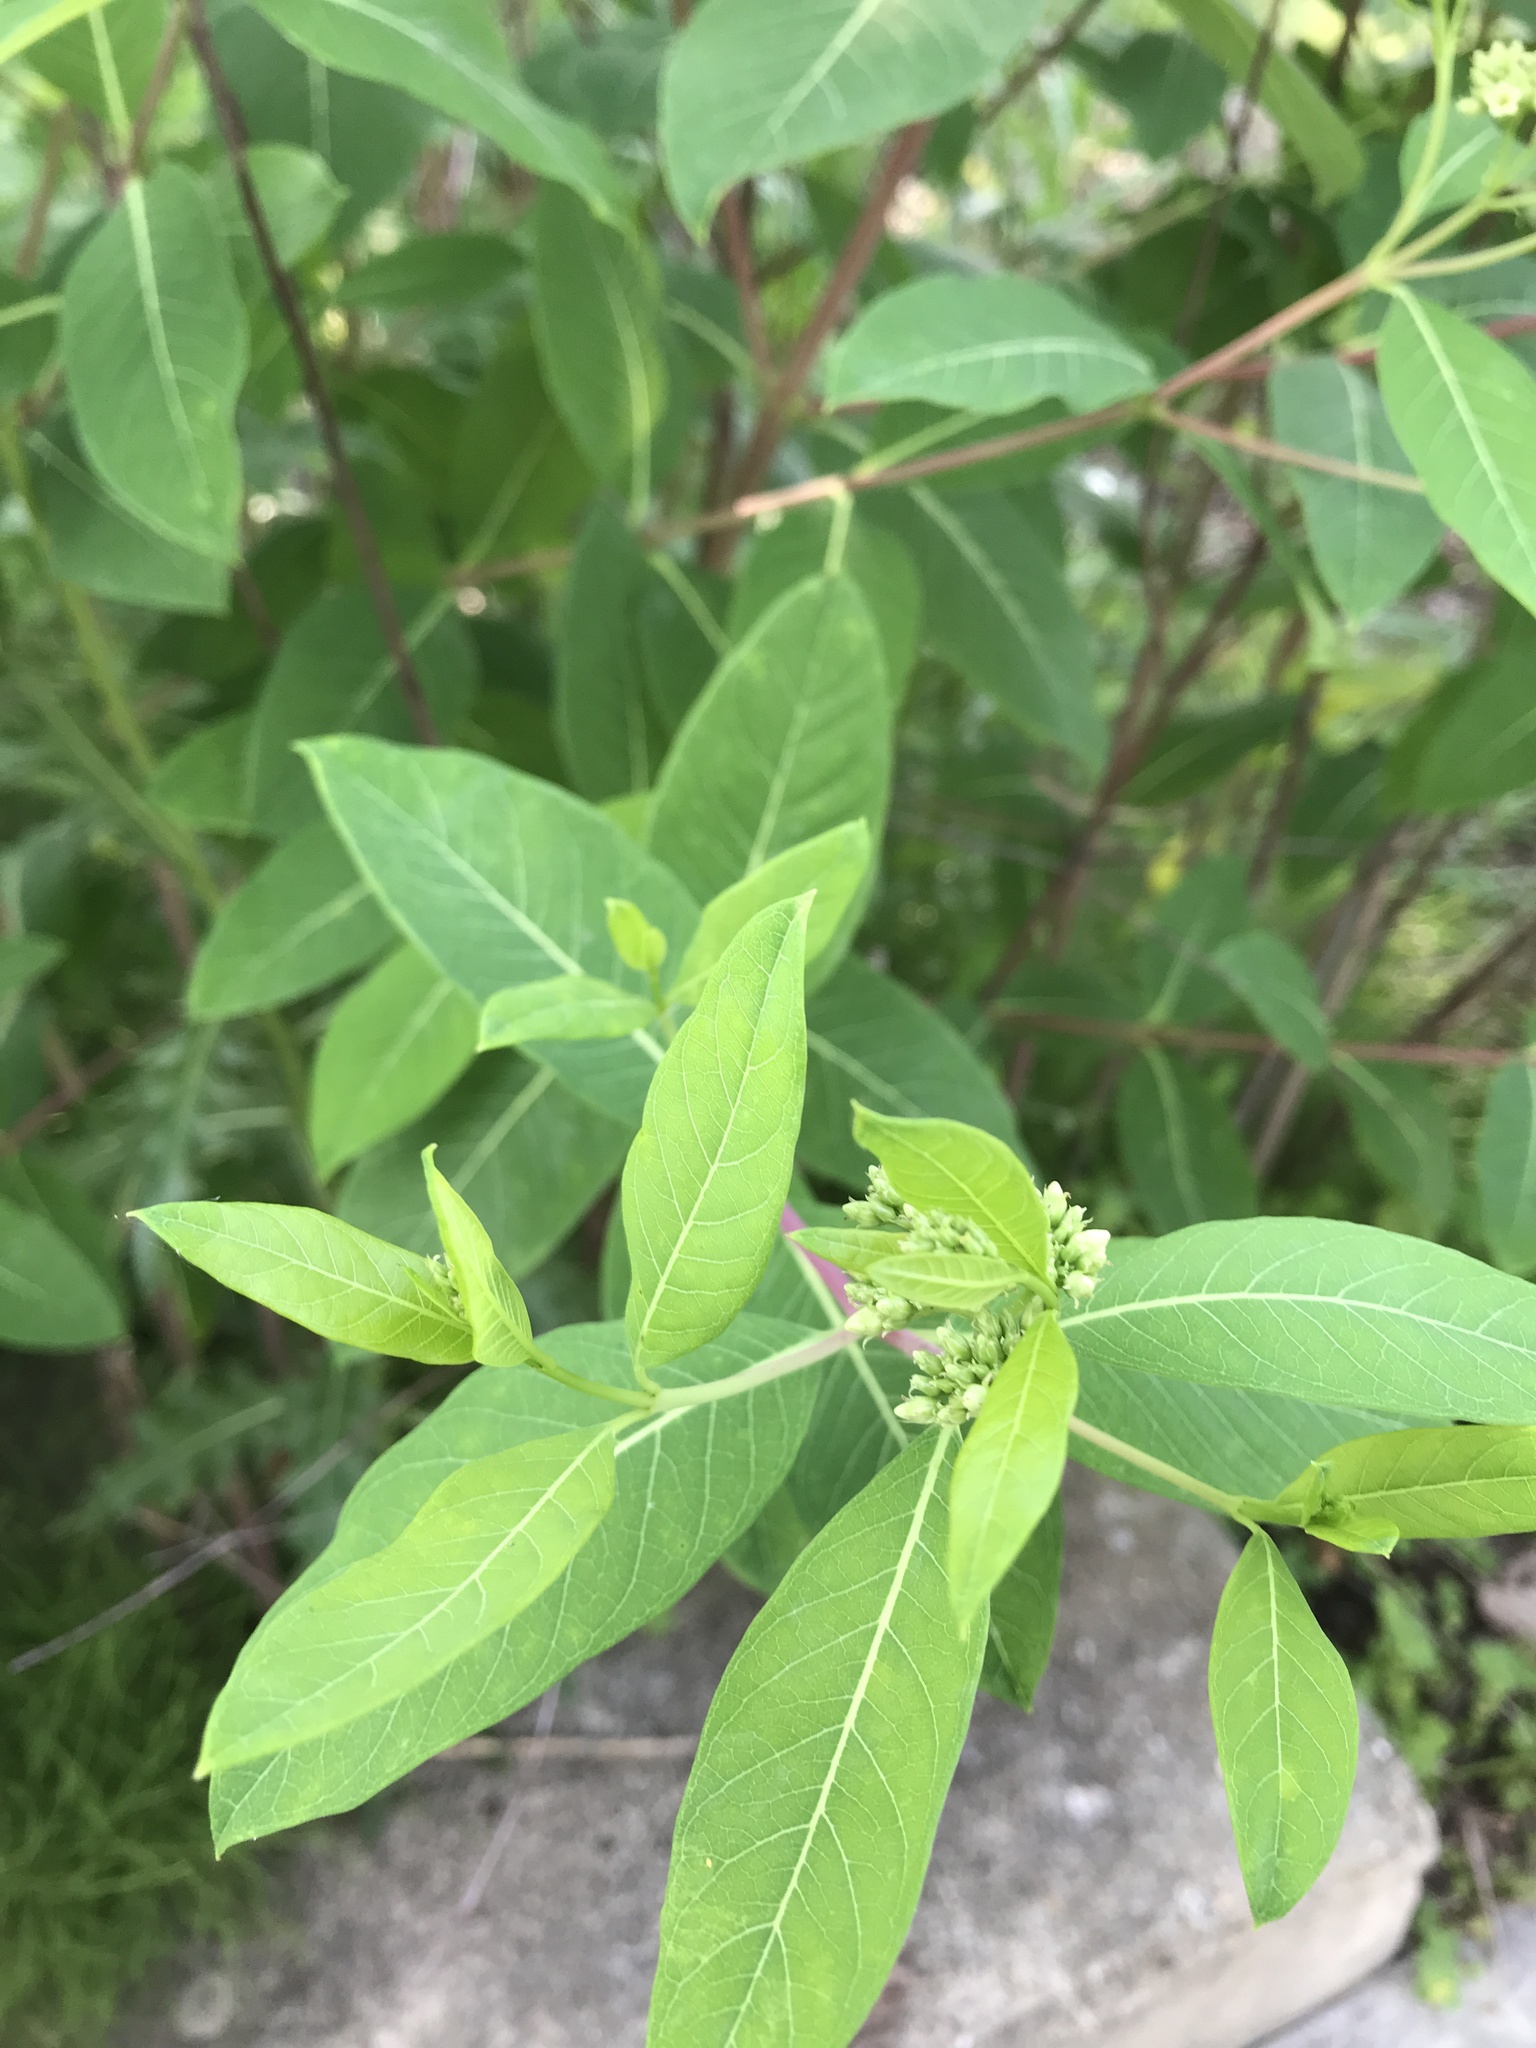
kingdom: Plantae
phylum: Tracheophyta
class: Magnoliopsida
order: Gentianales
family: Apocynaceae
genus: Apocynum
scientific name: Apocynum cannabinum
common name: Hemp dogbane
